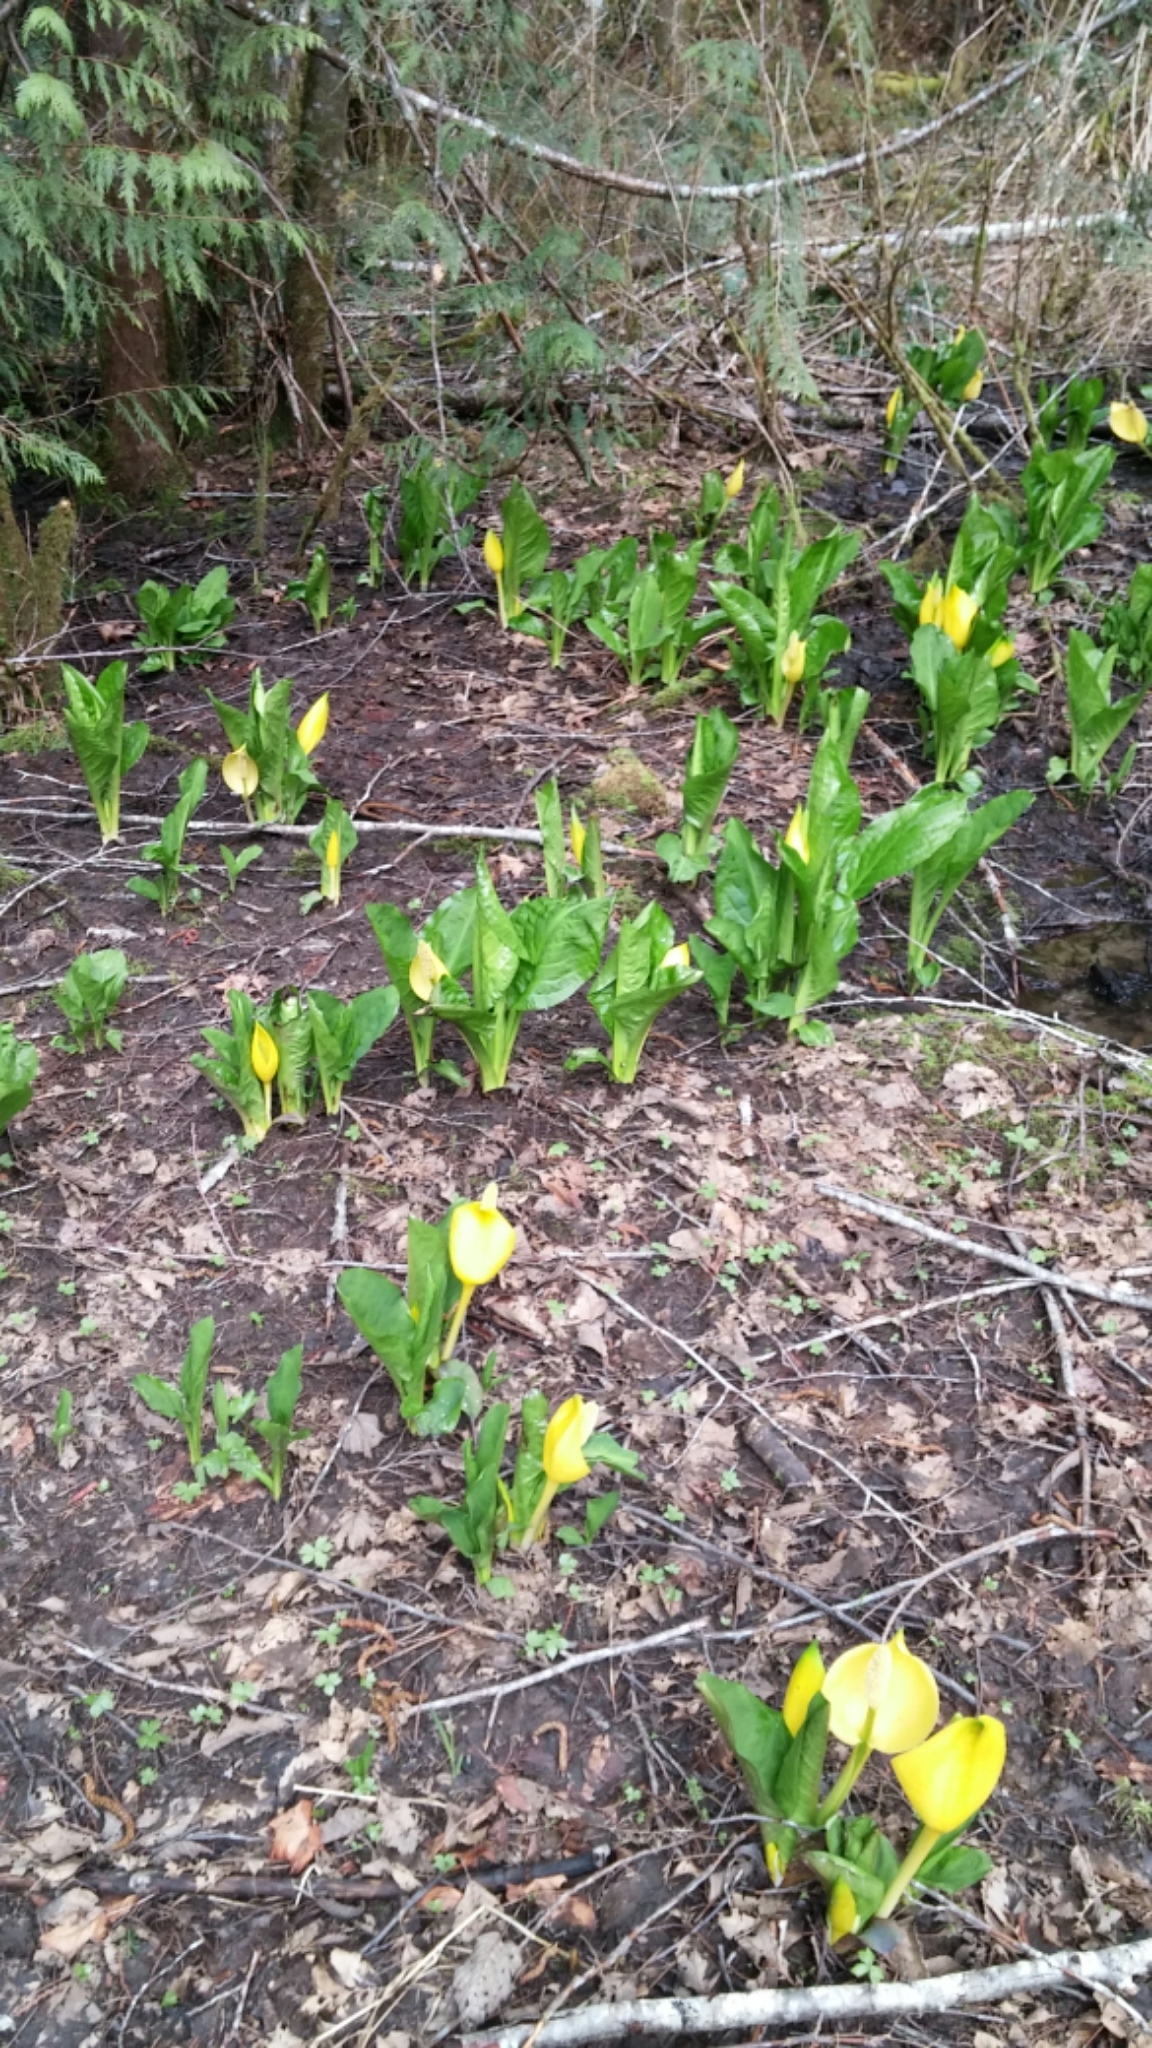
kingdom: Plantae
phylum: Tracheophyta
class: Liliopsida
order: Alismatales
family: Araceae
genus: Lysichiton
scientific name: Lysichiton americanus
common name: American skunk cabbage
